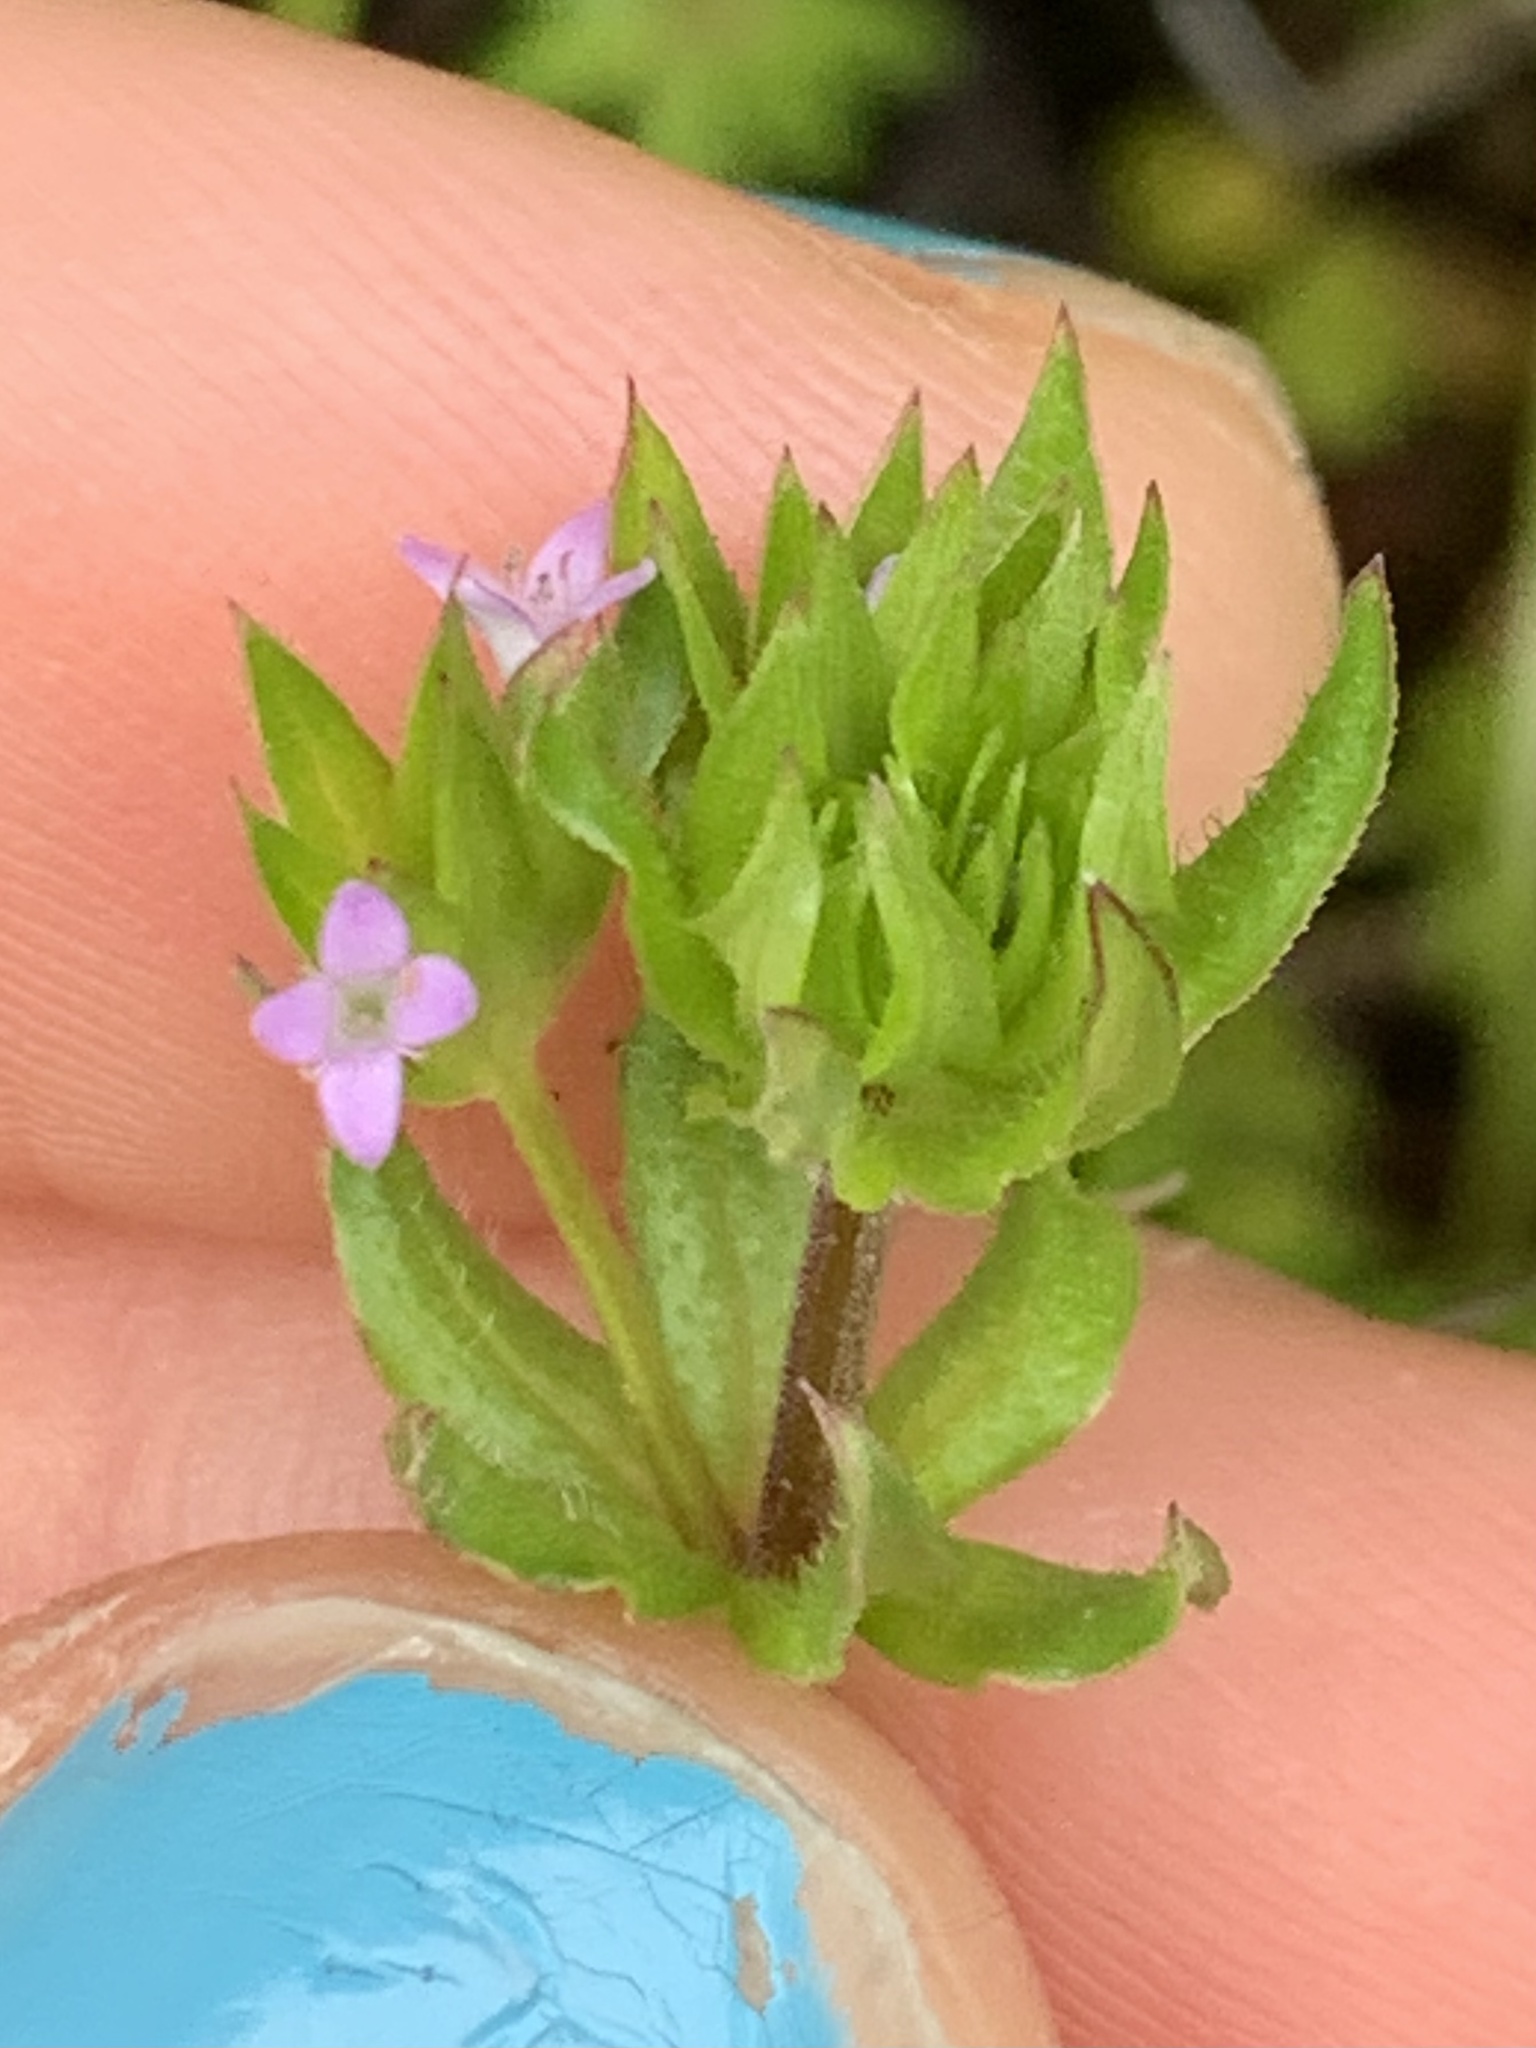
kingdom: Plantae
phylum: Tracheophyta
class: Magnoliopsida
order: Gentianales
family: Rubiaceae
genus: Sherardia
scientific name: Sherardia arvensis
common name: Field madder
